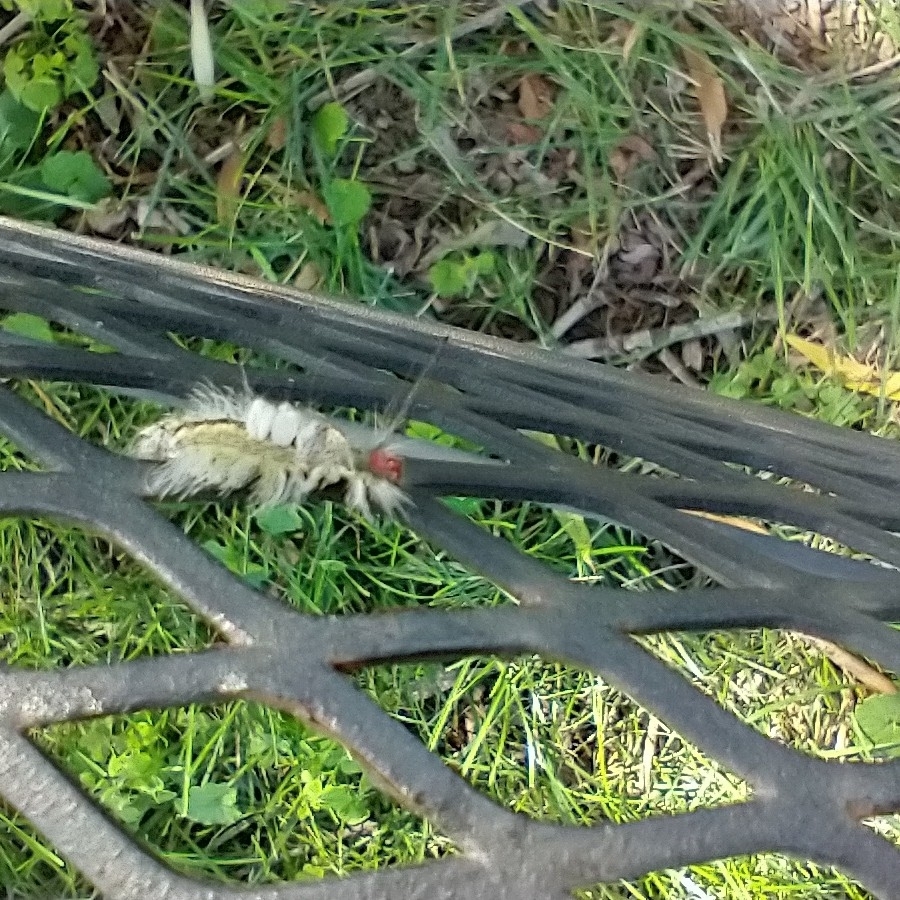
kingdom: Animalia
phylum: Arthropoda
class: Insecta
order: Lepidoptera
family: Erebidae
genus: Orgyia
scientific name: Orgyia leucostigma
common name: White-marked tussock moth
